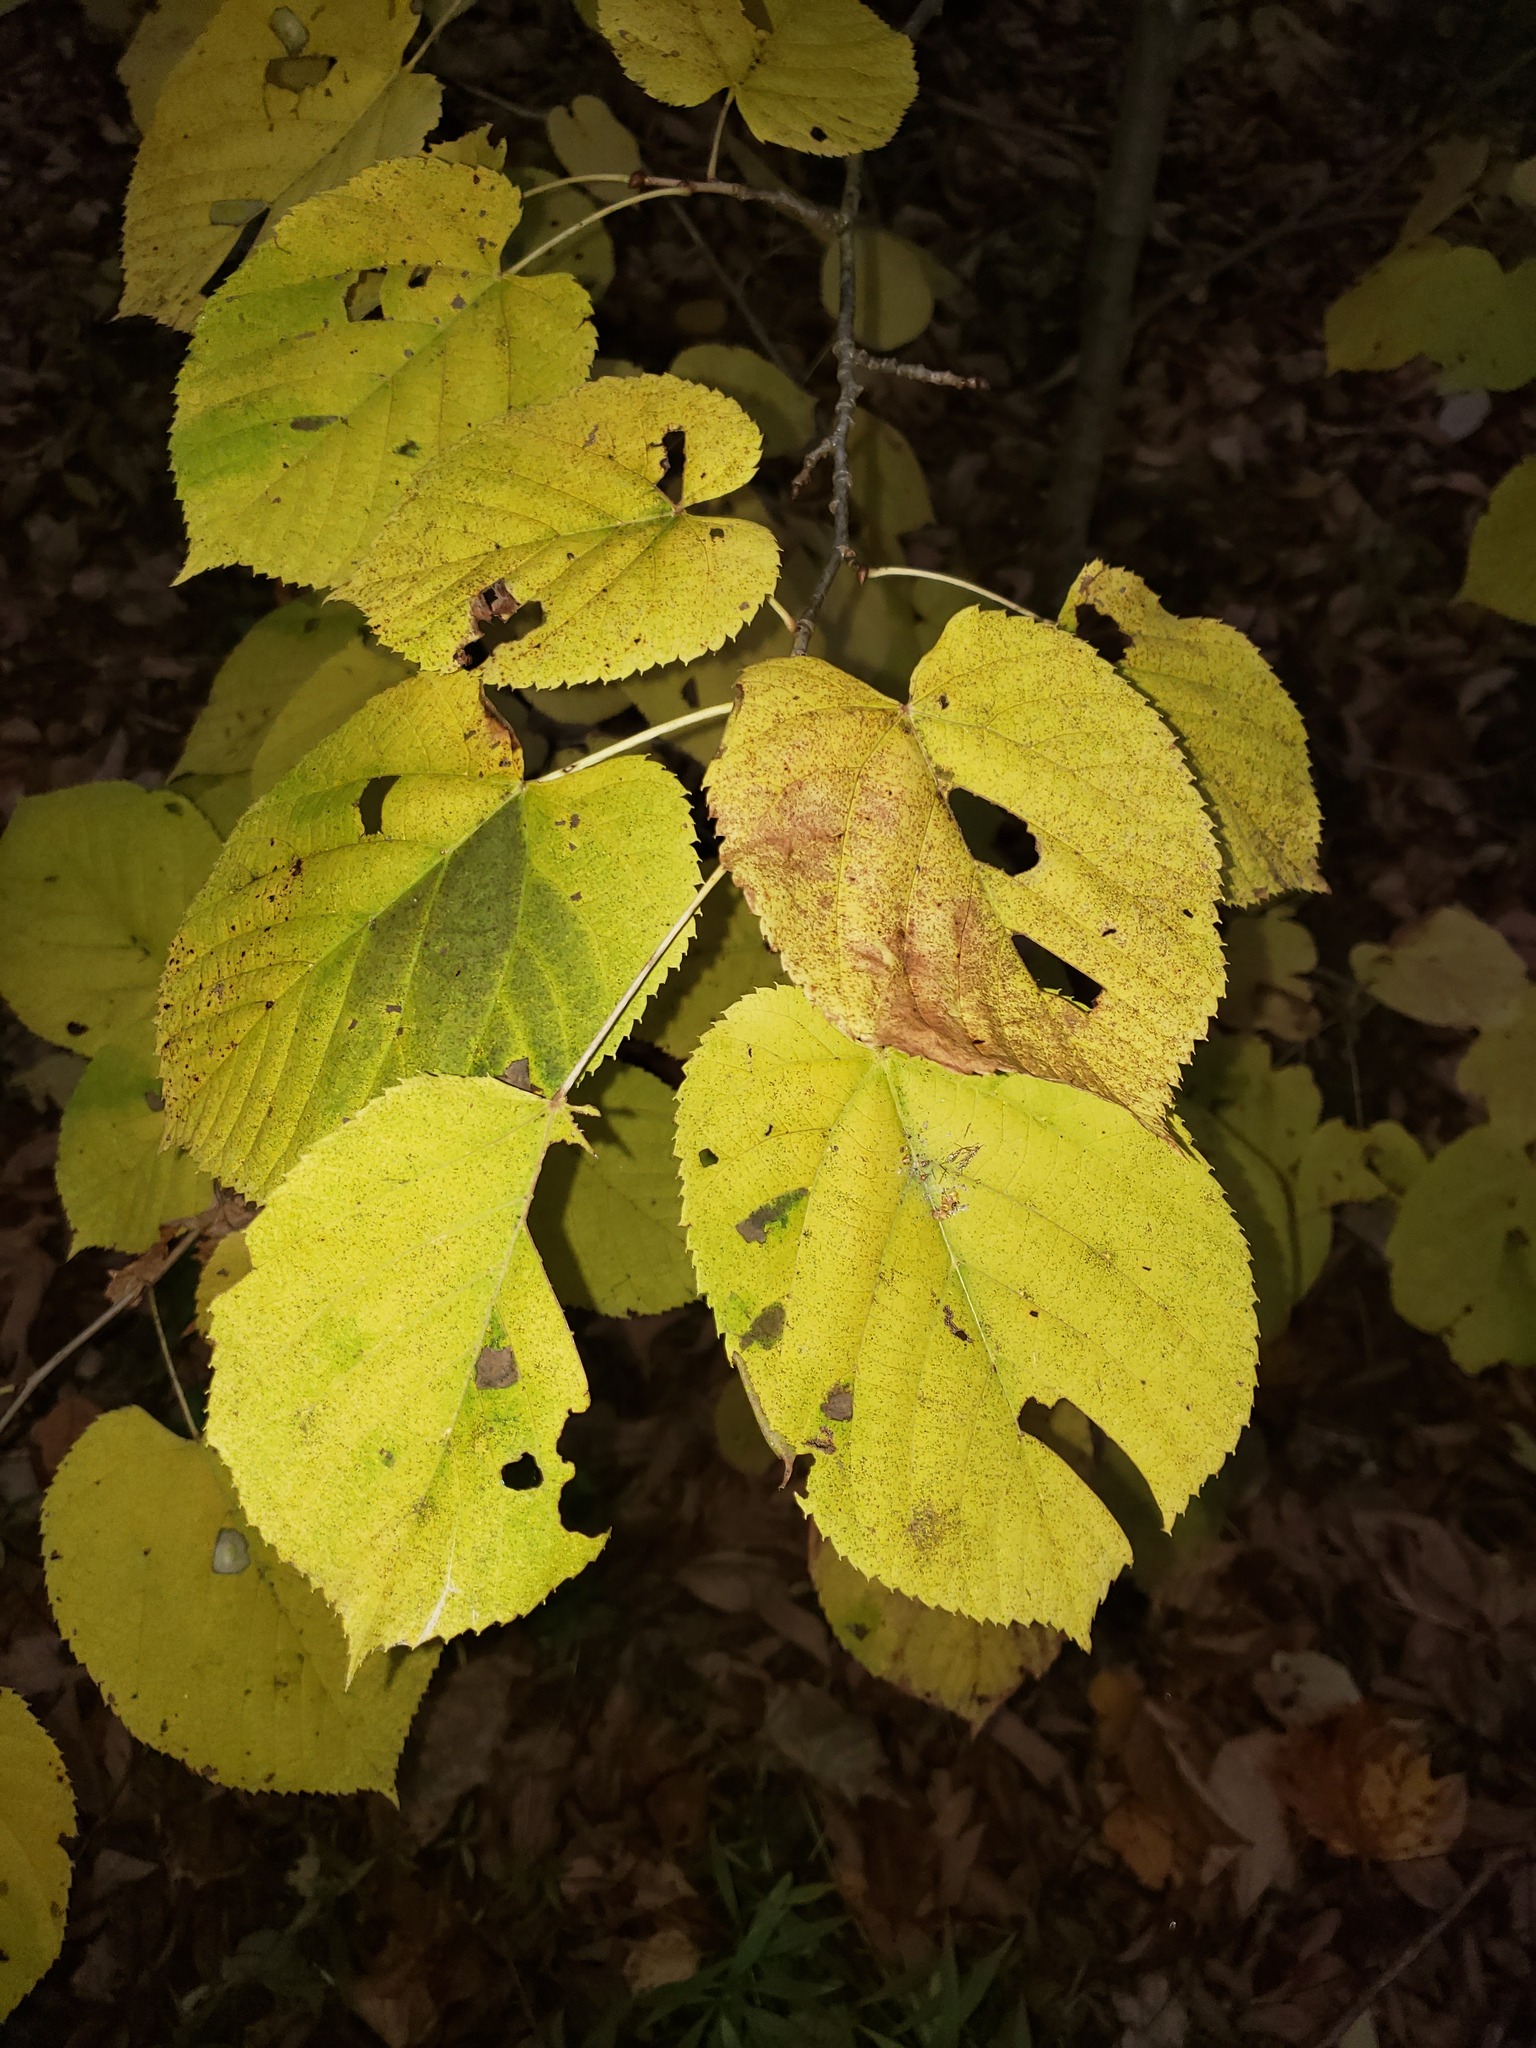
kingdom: Plantae
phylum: Tracheophyta
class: Magnoliopsida
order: Malvales
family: Malvaceae
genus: Tilia
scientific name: Tilia americana
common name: Basswood
